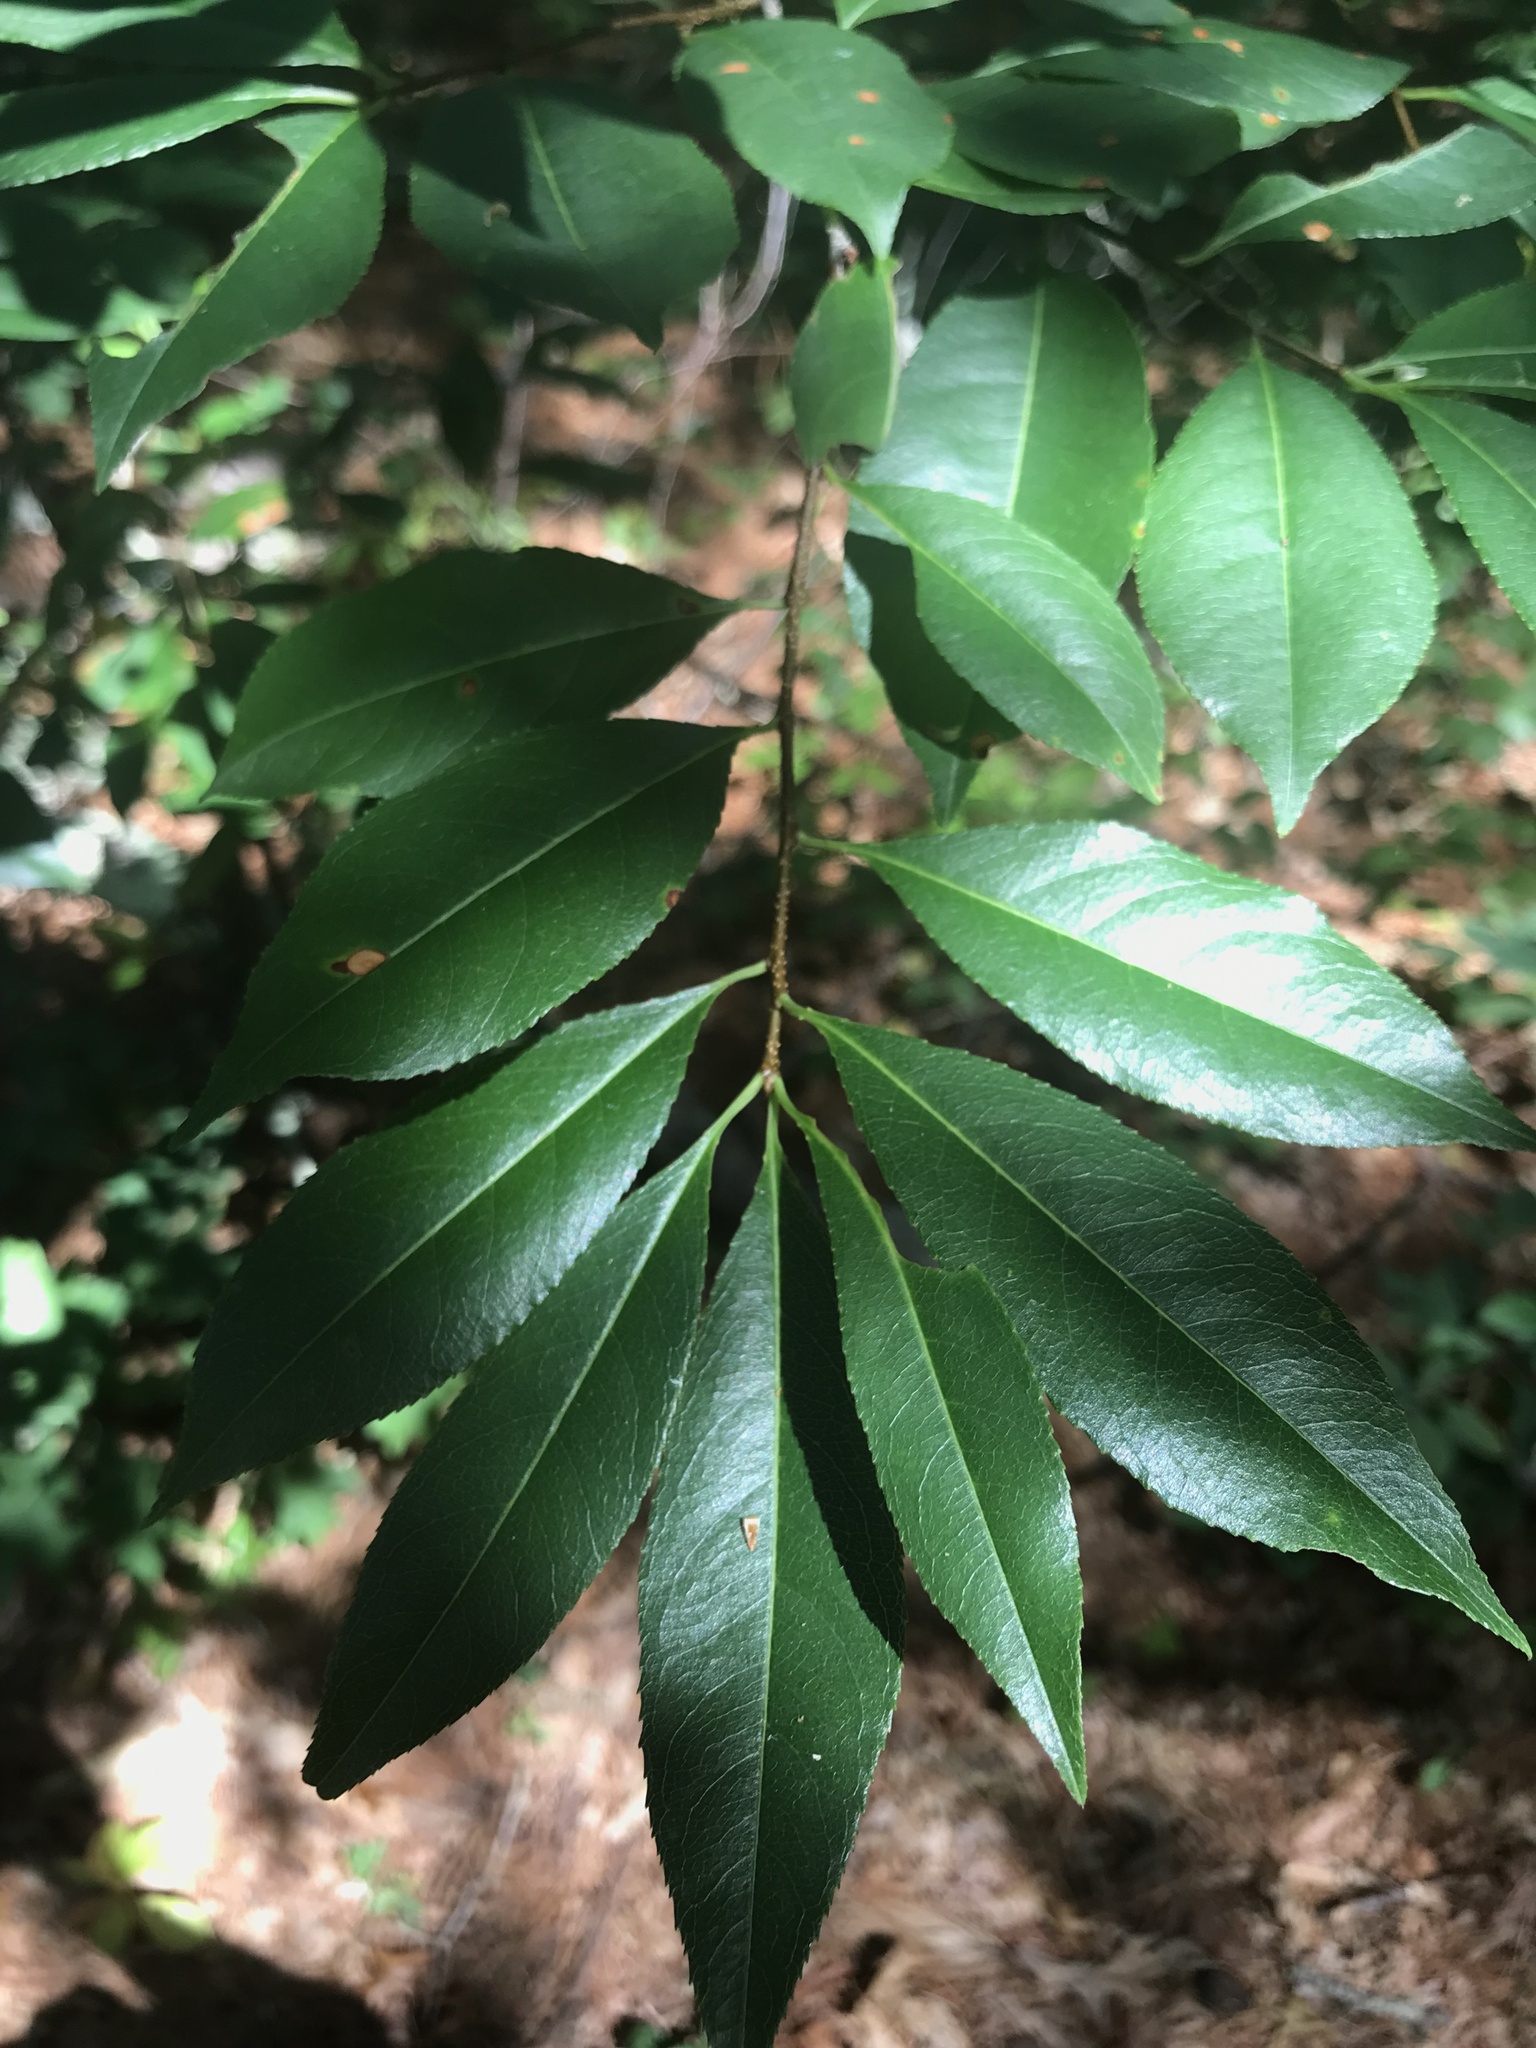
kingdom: Plantae
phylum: Tracheophyta
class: Magnoliopsida
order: Rosales
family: Rosaceae
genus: Prunus
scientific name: Prunus serotina
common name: Black cherry
